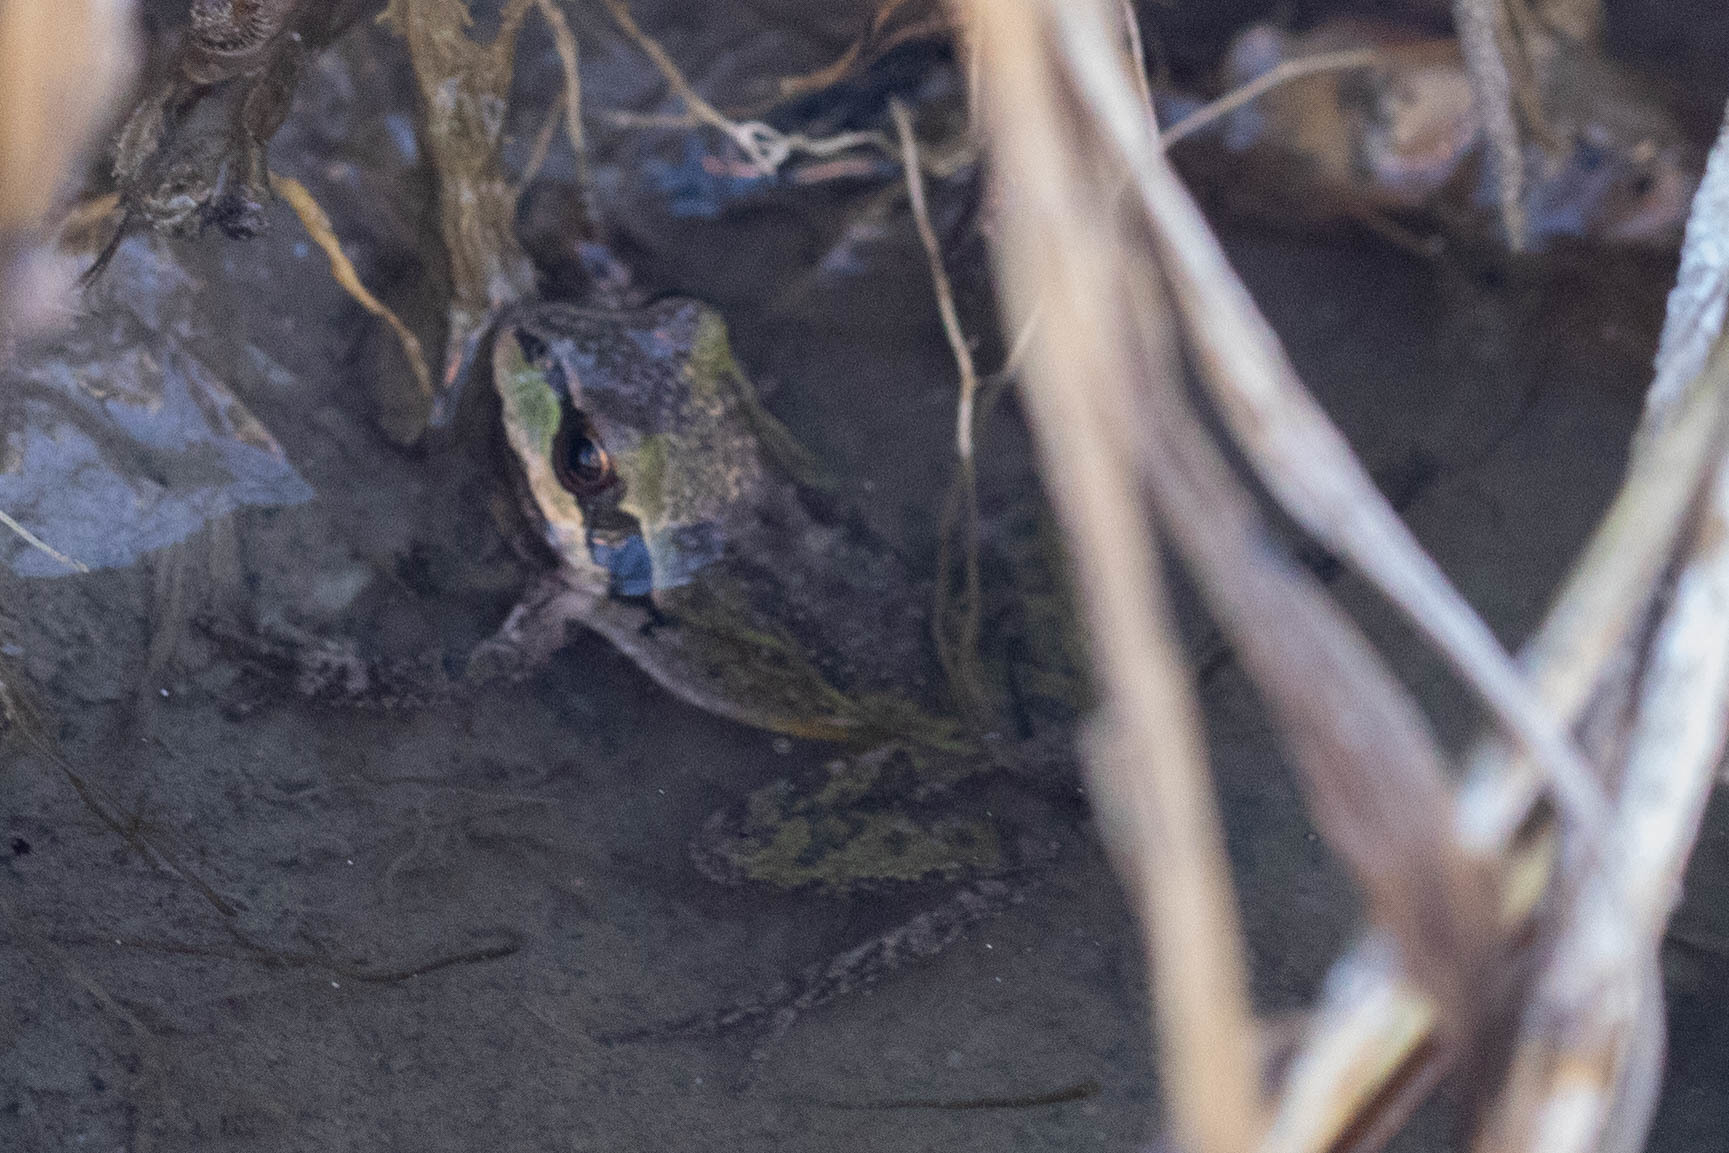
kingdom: Animalia
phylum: Chordata
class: Amphibia
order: Anura
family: Hylidae
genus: Pseudacris
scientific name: Pseudacris regilla
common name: Pacific chorus frog
